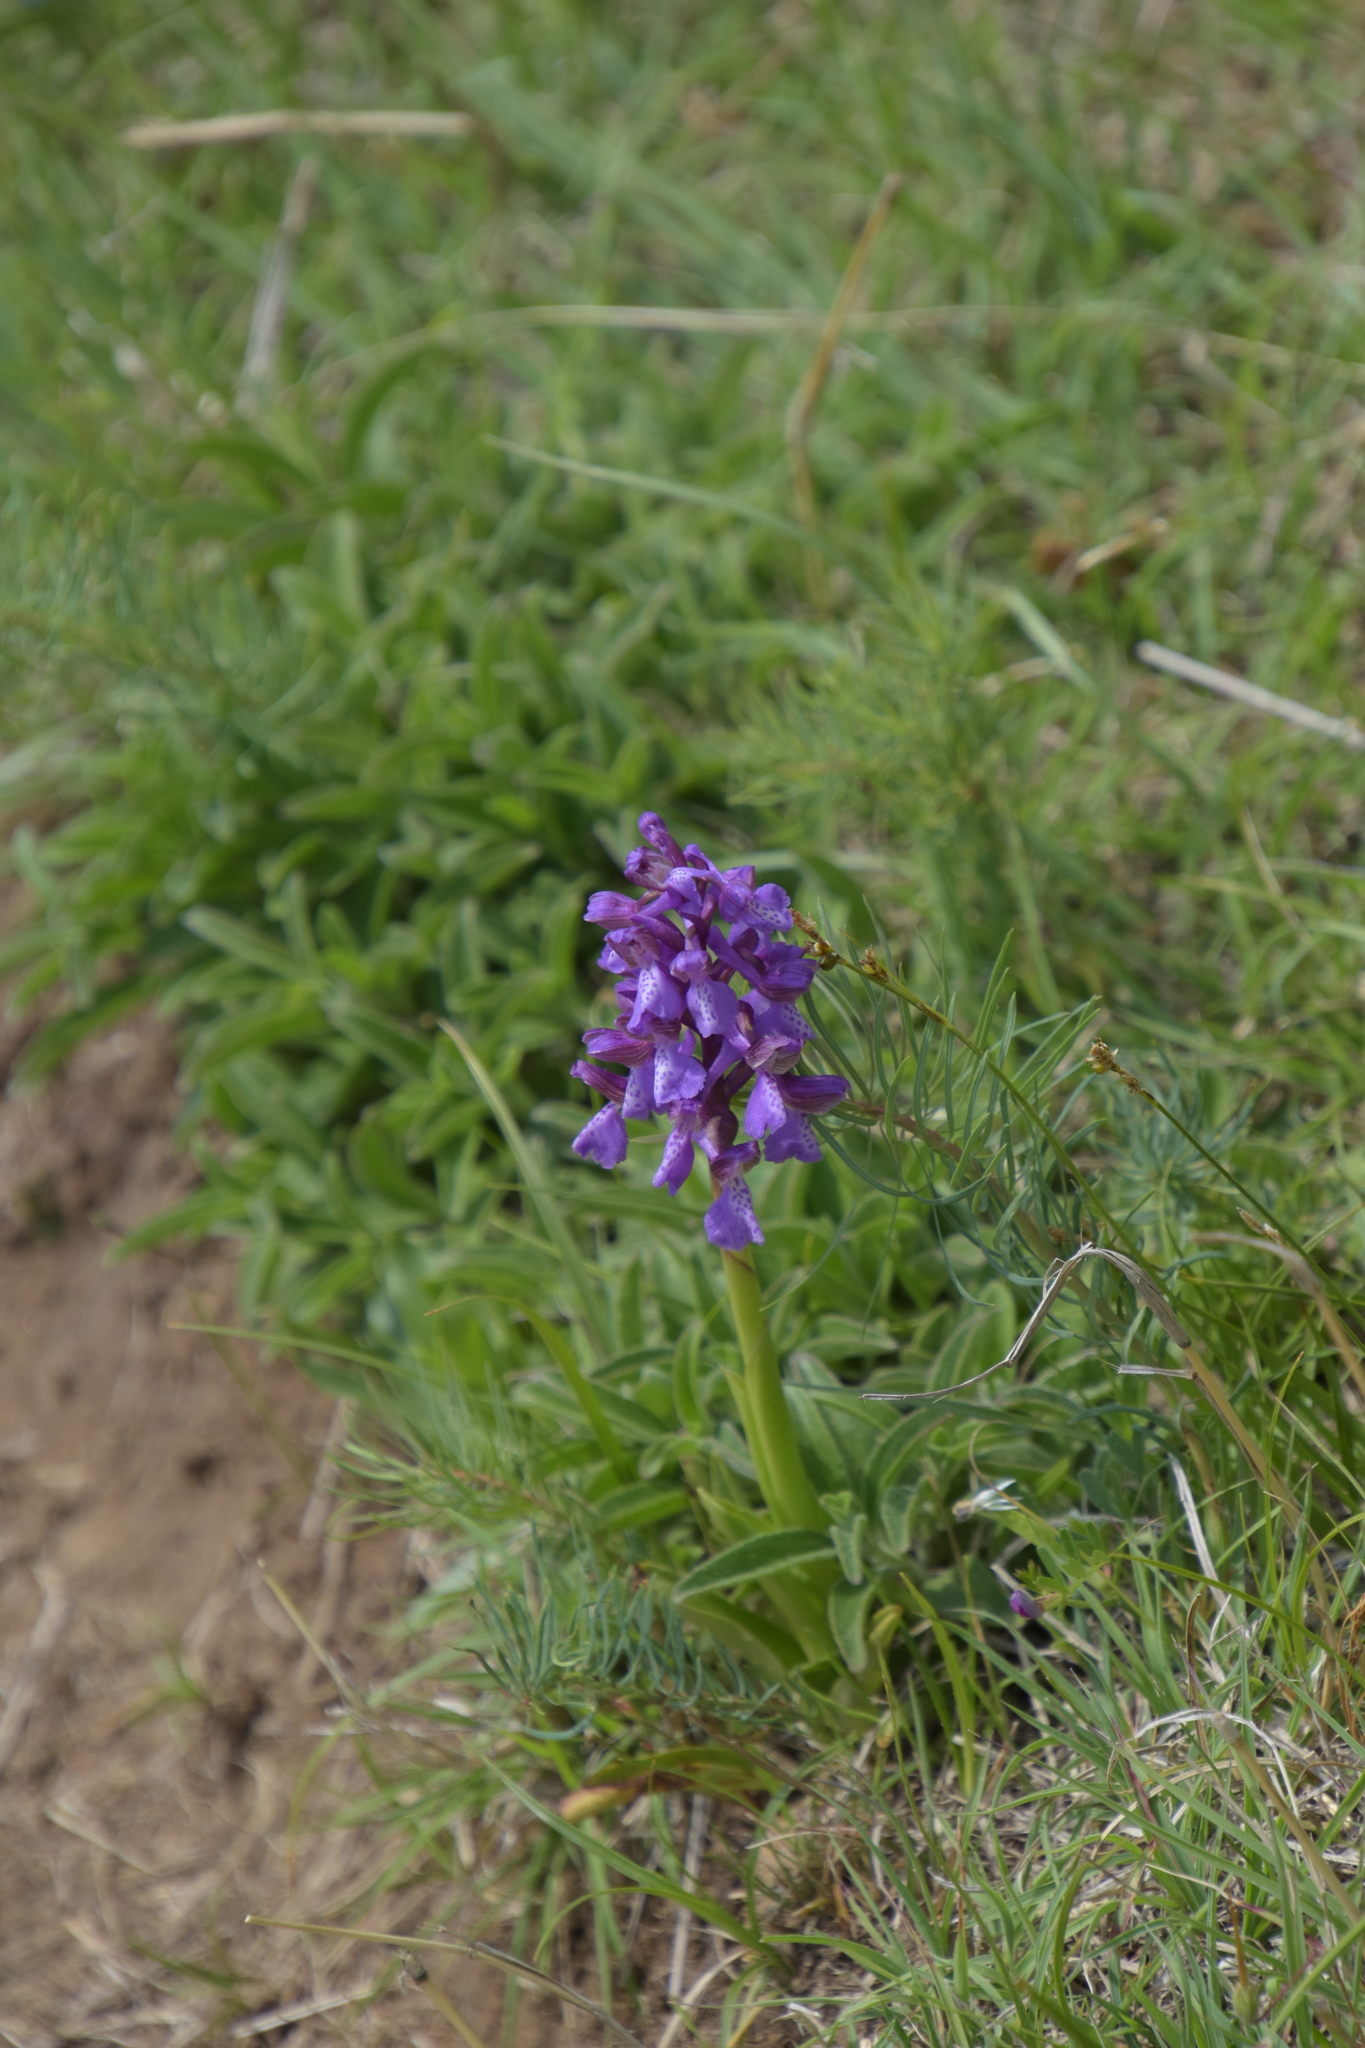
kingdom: Plantae
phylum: Tracheophyta
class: Liliopsida
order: Asparagales
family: Orchidaceae
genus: Anacamptis
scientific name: Anacamptis morio
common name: Green-winged orchid
